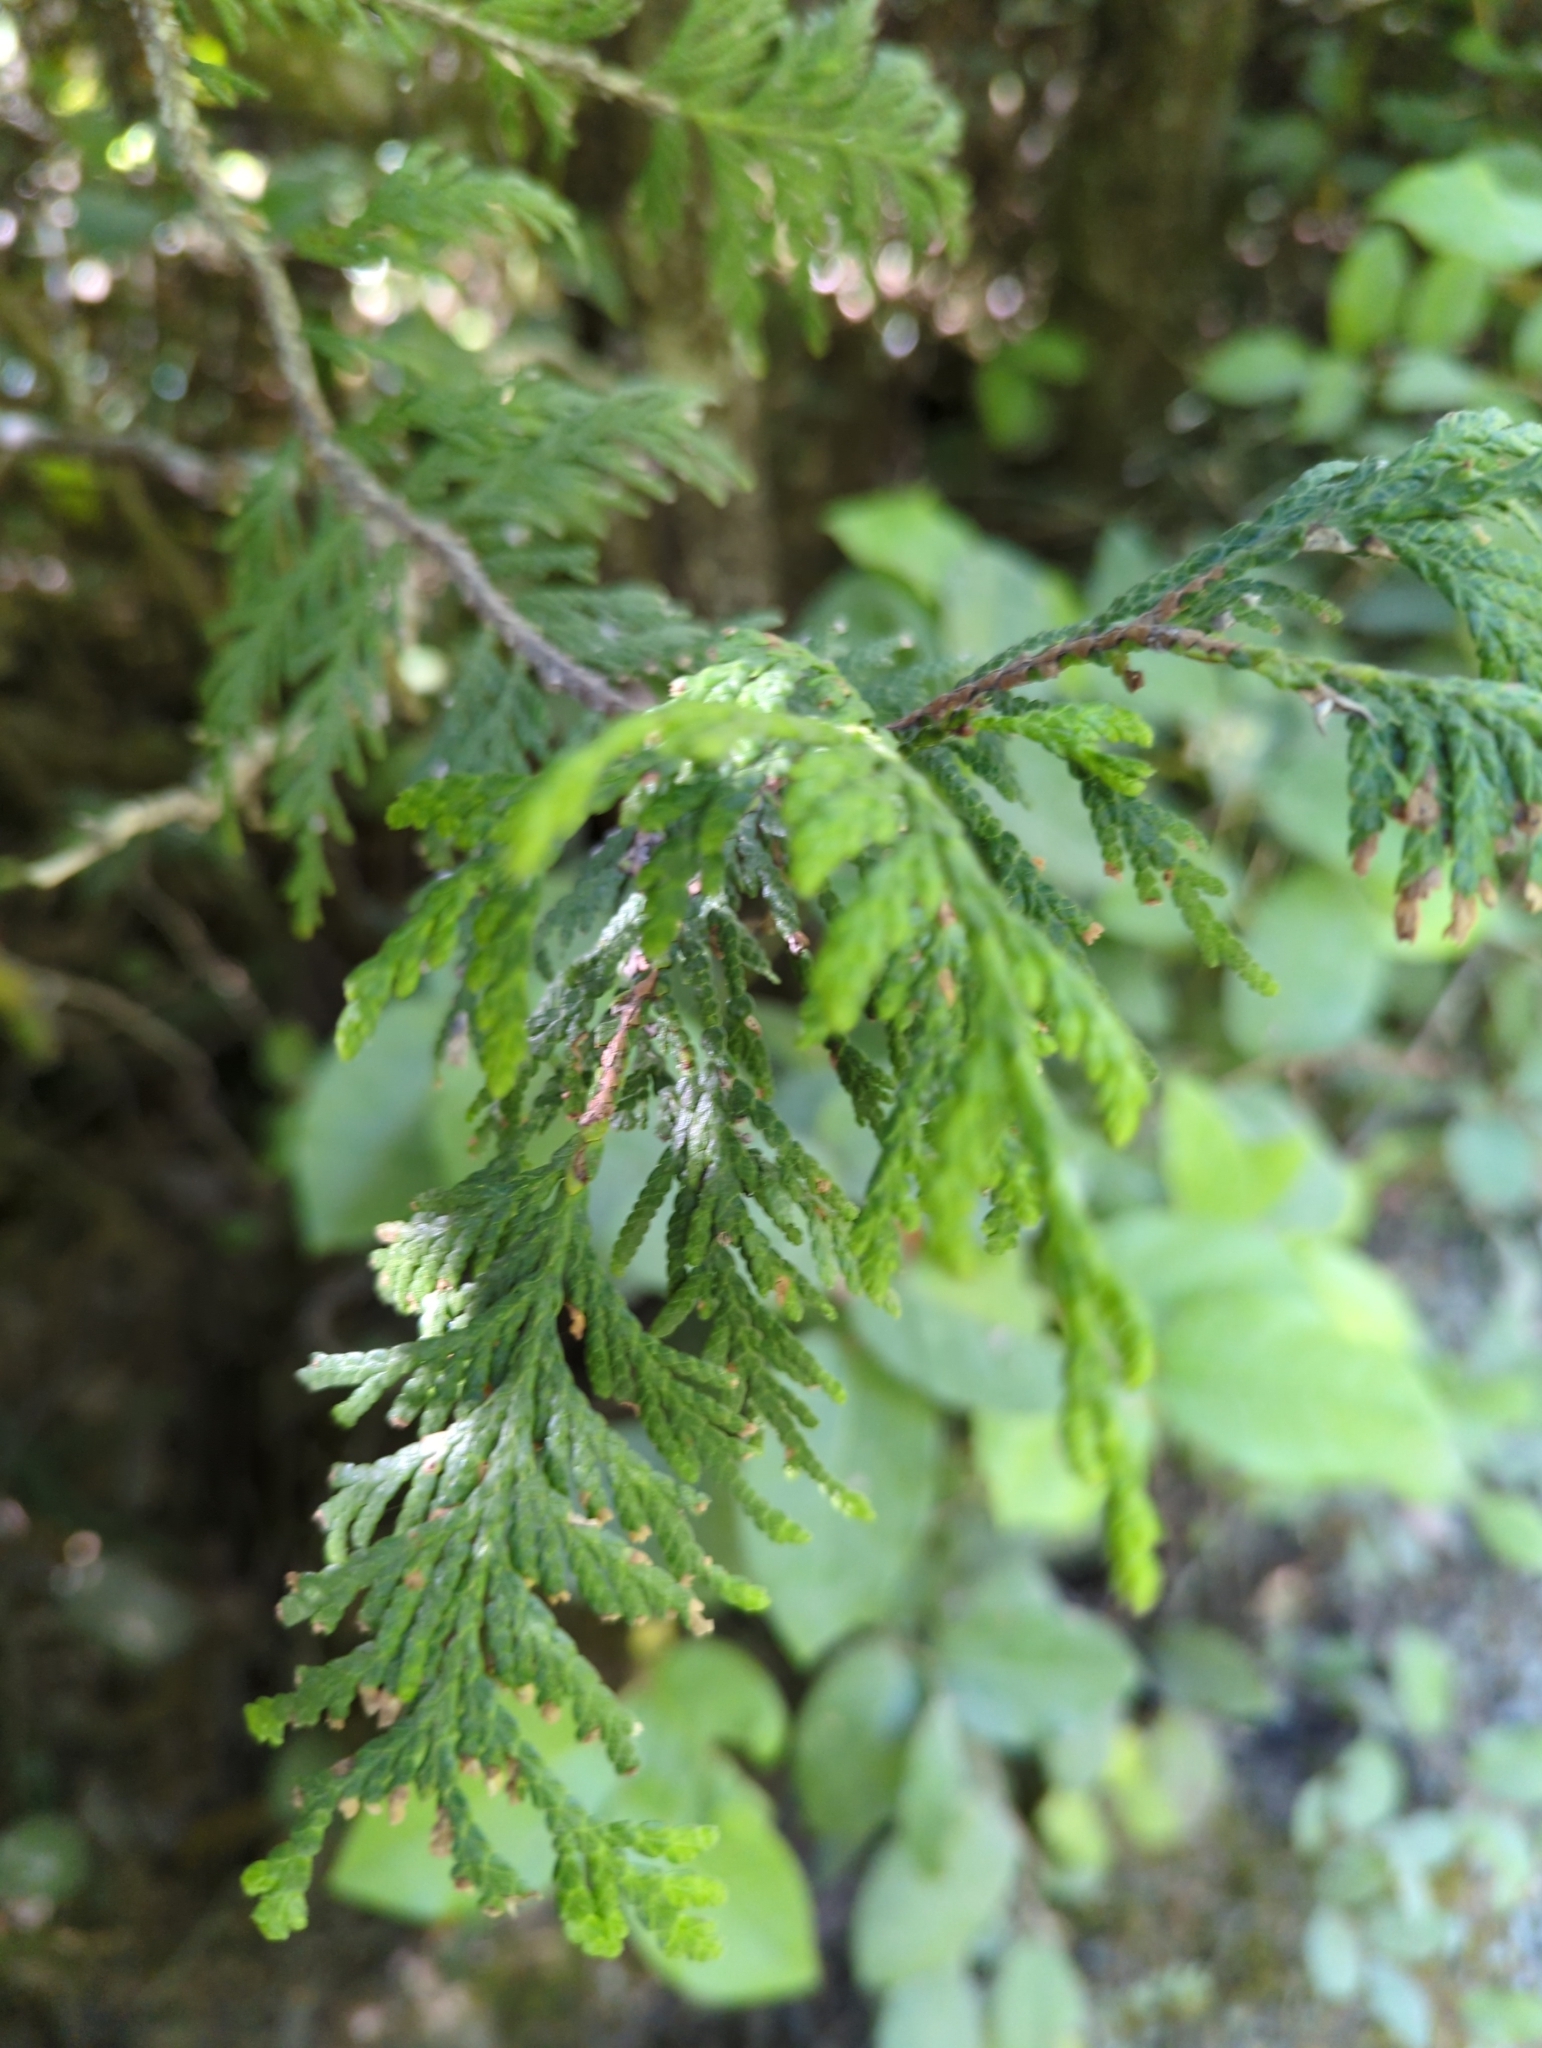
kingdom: Plantae
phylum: Tracheophyta
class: Pinopsida
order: Pinales
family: Cupressaceae
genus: Thuja
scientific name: Thuja plicata
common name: Western red-cedar
